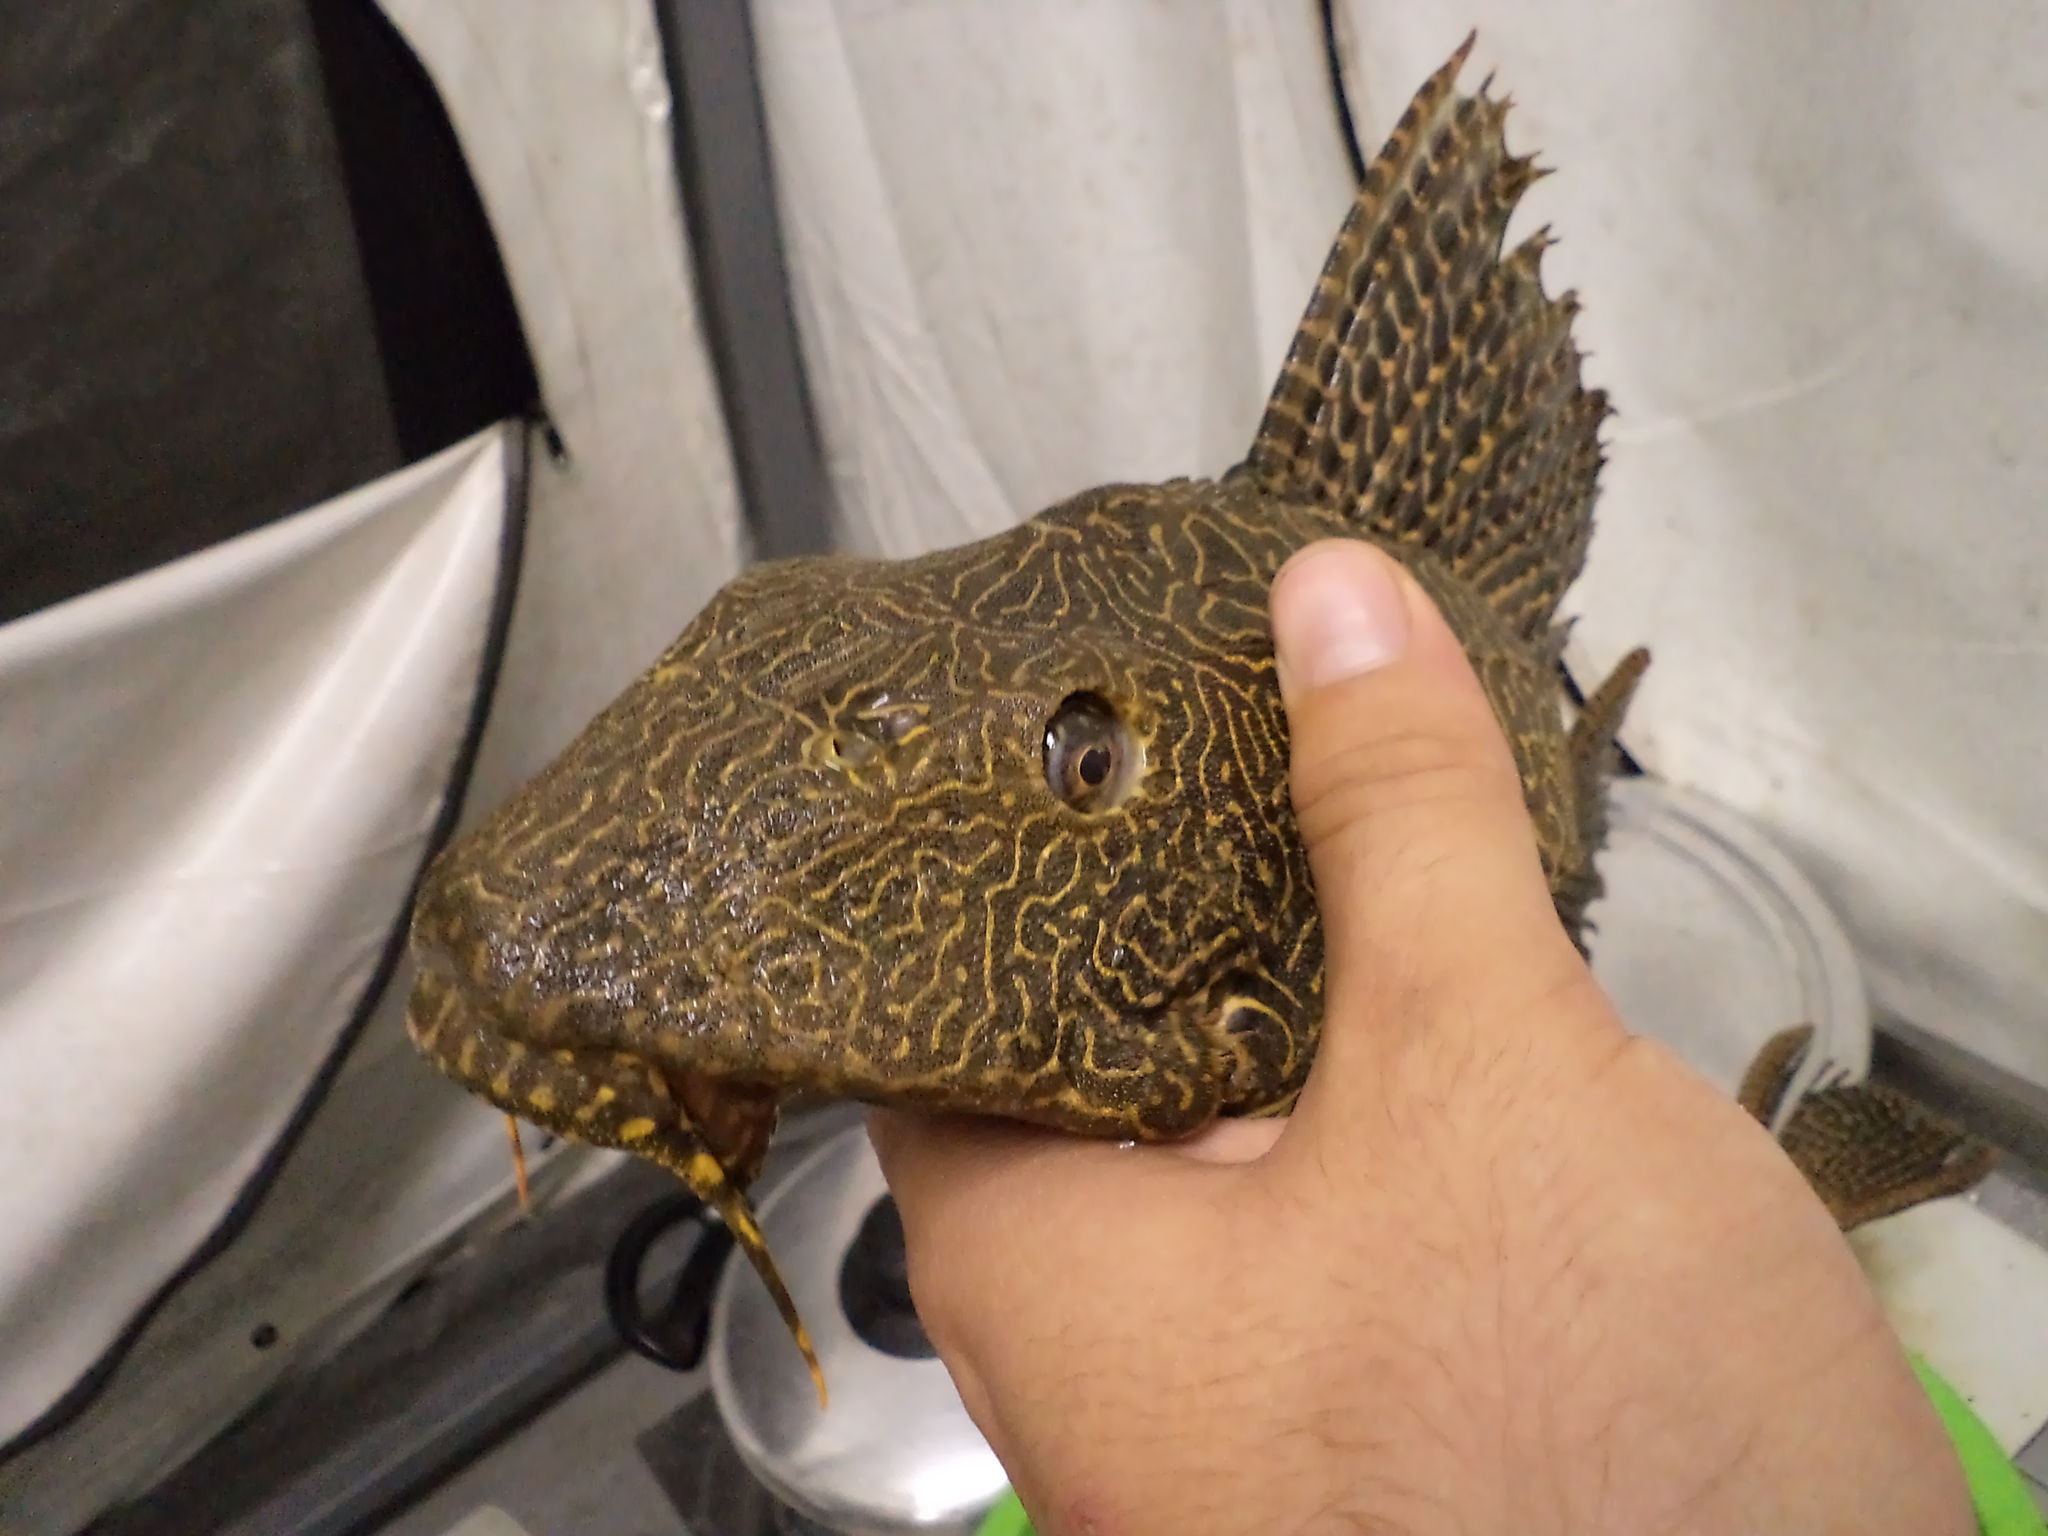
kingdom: Animalia
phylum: Chordata
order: Siluriformes
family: Loricariidae
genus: Pterygoplichthys
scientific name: Pterygoplichthys lituratus
